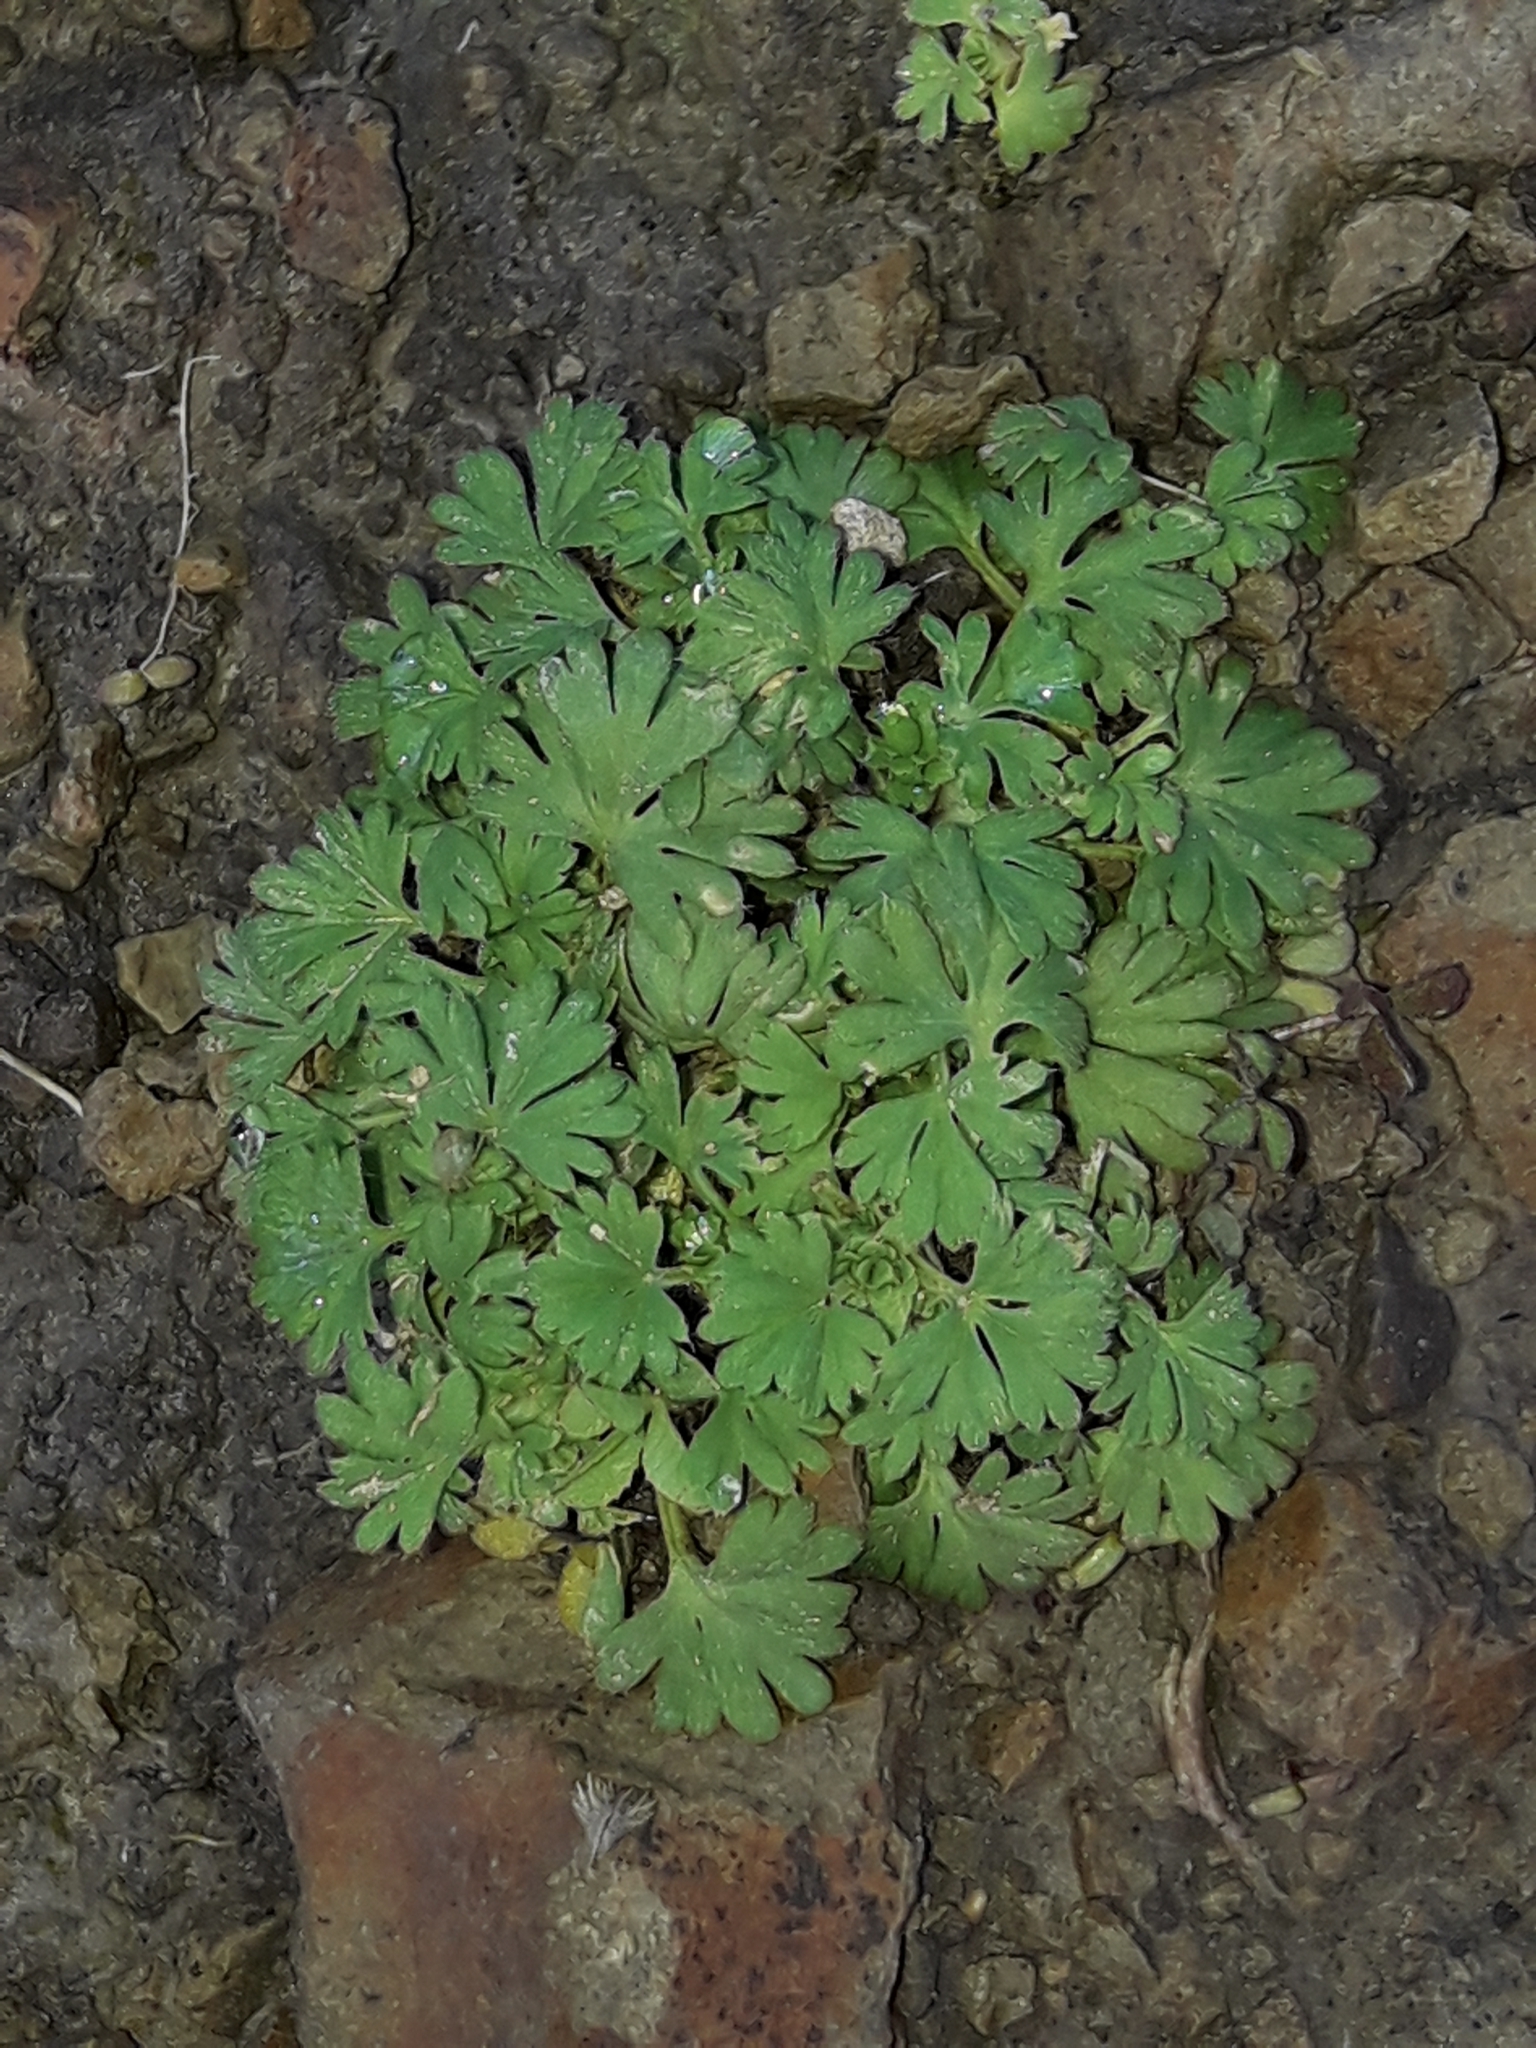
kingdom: Plantae
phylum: Tracheophyta
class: Magnoliopsida
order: Rosales
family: Rosaceae
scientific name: Rosaceae
